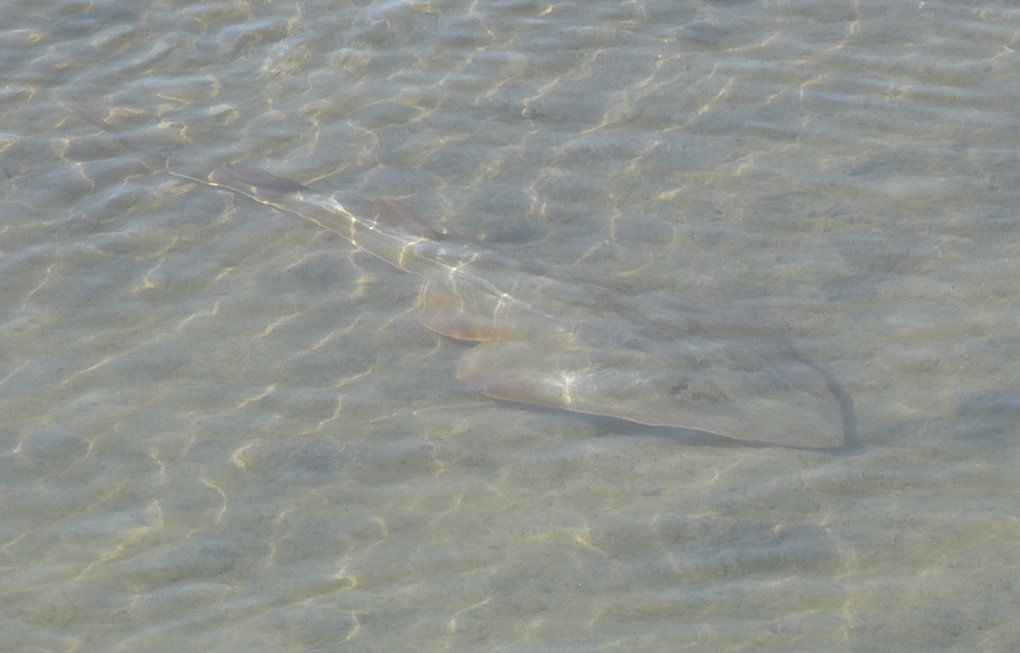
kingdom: Animalia
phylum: Chordata
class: Elasmobranchii
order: Rhinopristiformes
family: Rhinobatidae
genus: Pseudobatos
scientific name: Pseudobatos productus
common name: Shovelnose guitarfish
